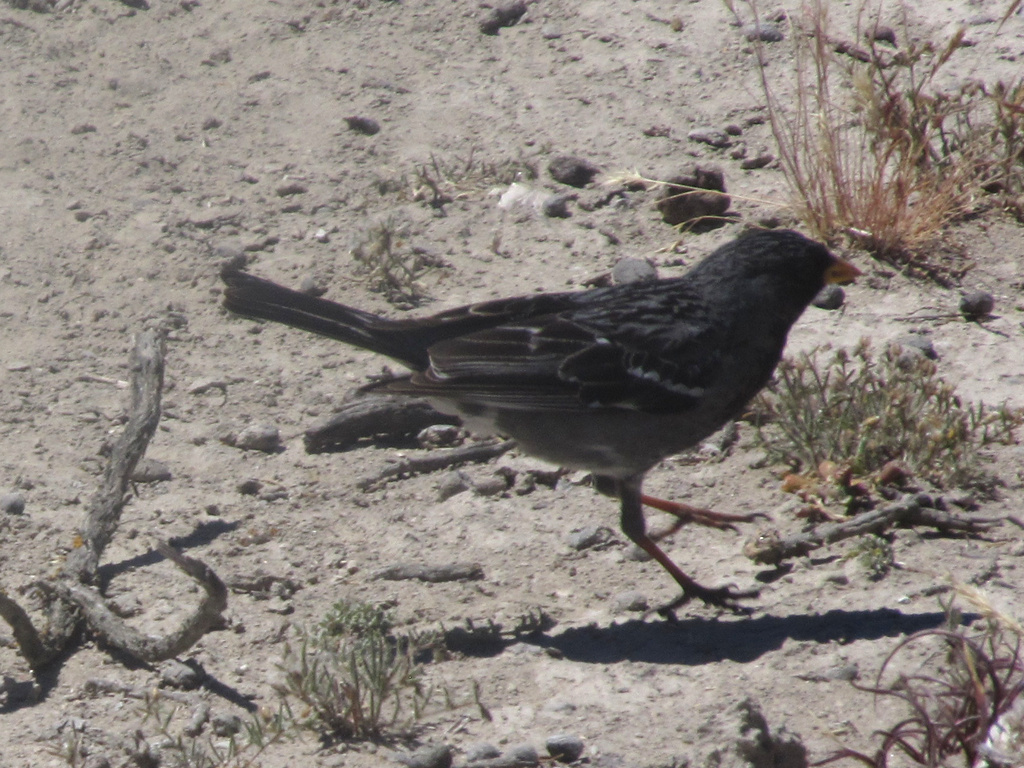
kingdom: Animalia
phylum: Chordata
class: Aves
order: Passeriformes
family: Thraupidae
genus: Rhopospina
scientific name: Rhopospina fruticeti
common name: Mourning sierra finch
